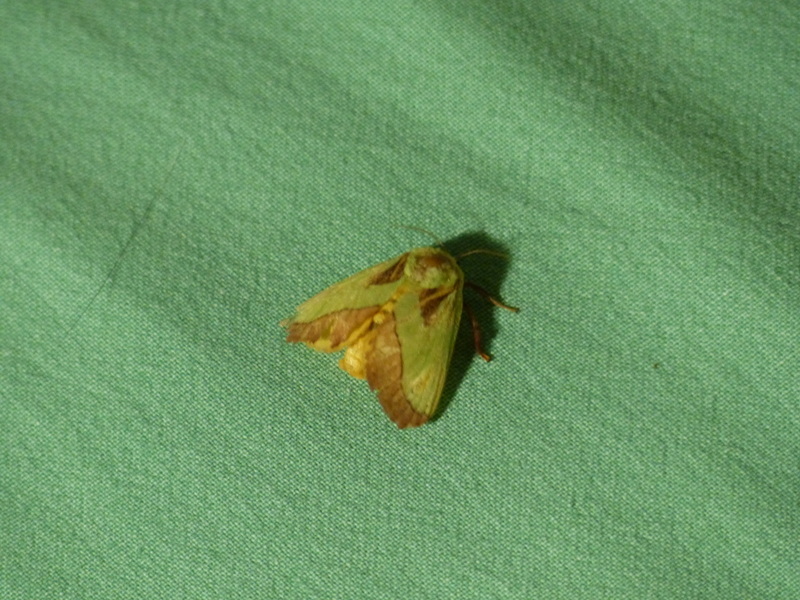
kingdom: Animalia
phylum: Arthropoda
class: Insecta
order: Lepidoptera
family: Limacodidae
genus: Parasa
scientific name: Parasa latistriga
